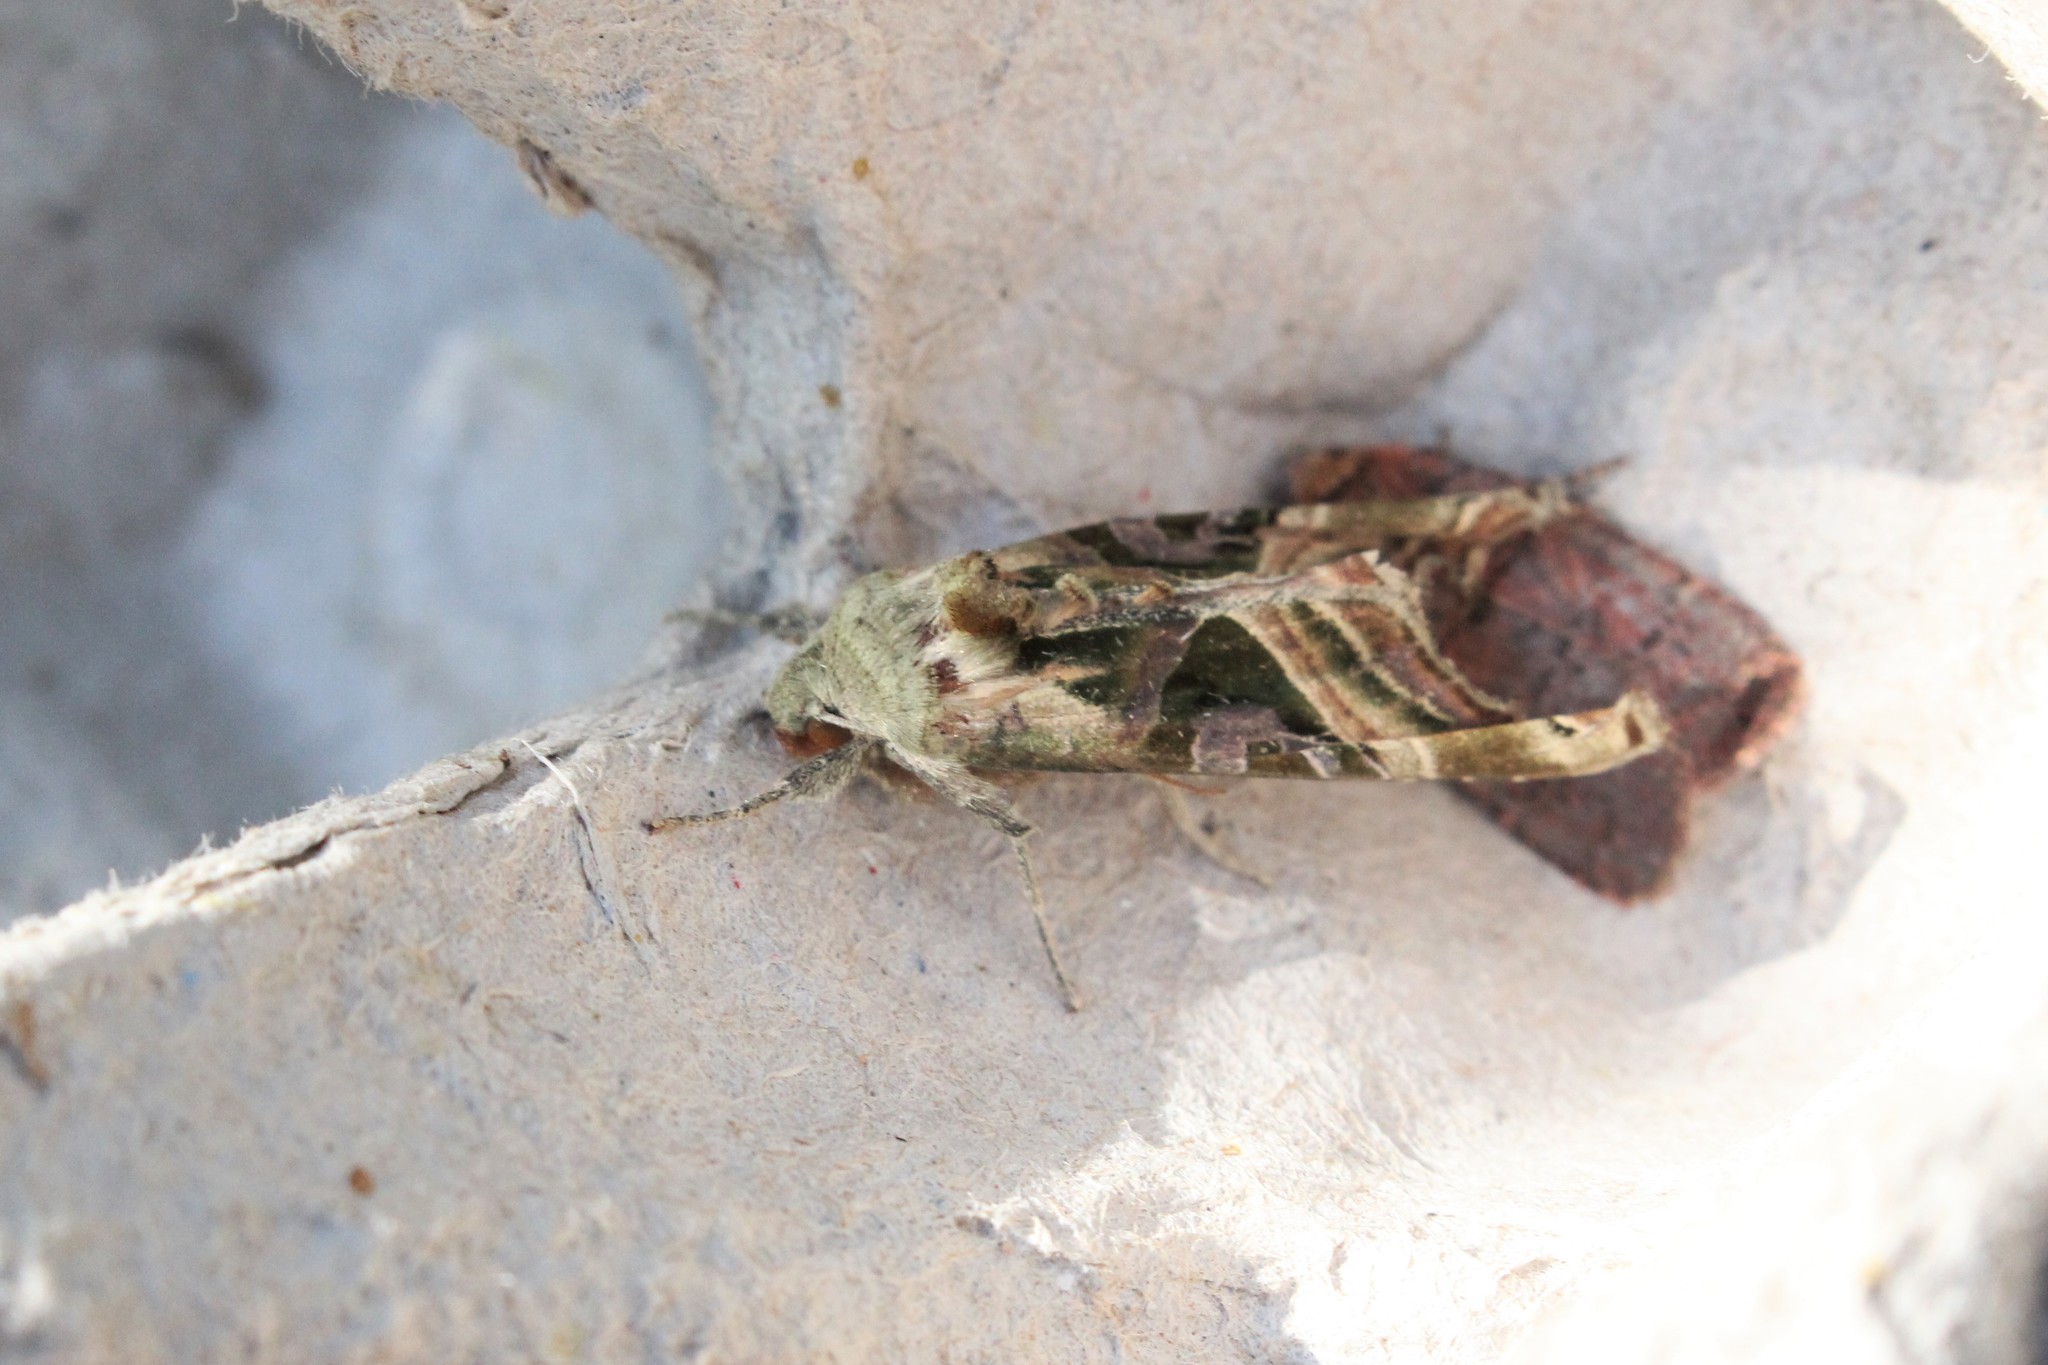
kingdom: Animalia
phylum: Arthropoda
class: Insecta
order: Lepidoptera
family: Noctuidae
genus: Phlogophora
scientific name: Phlogophora iris
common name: Olive angle shades
